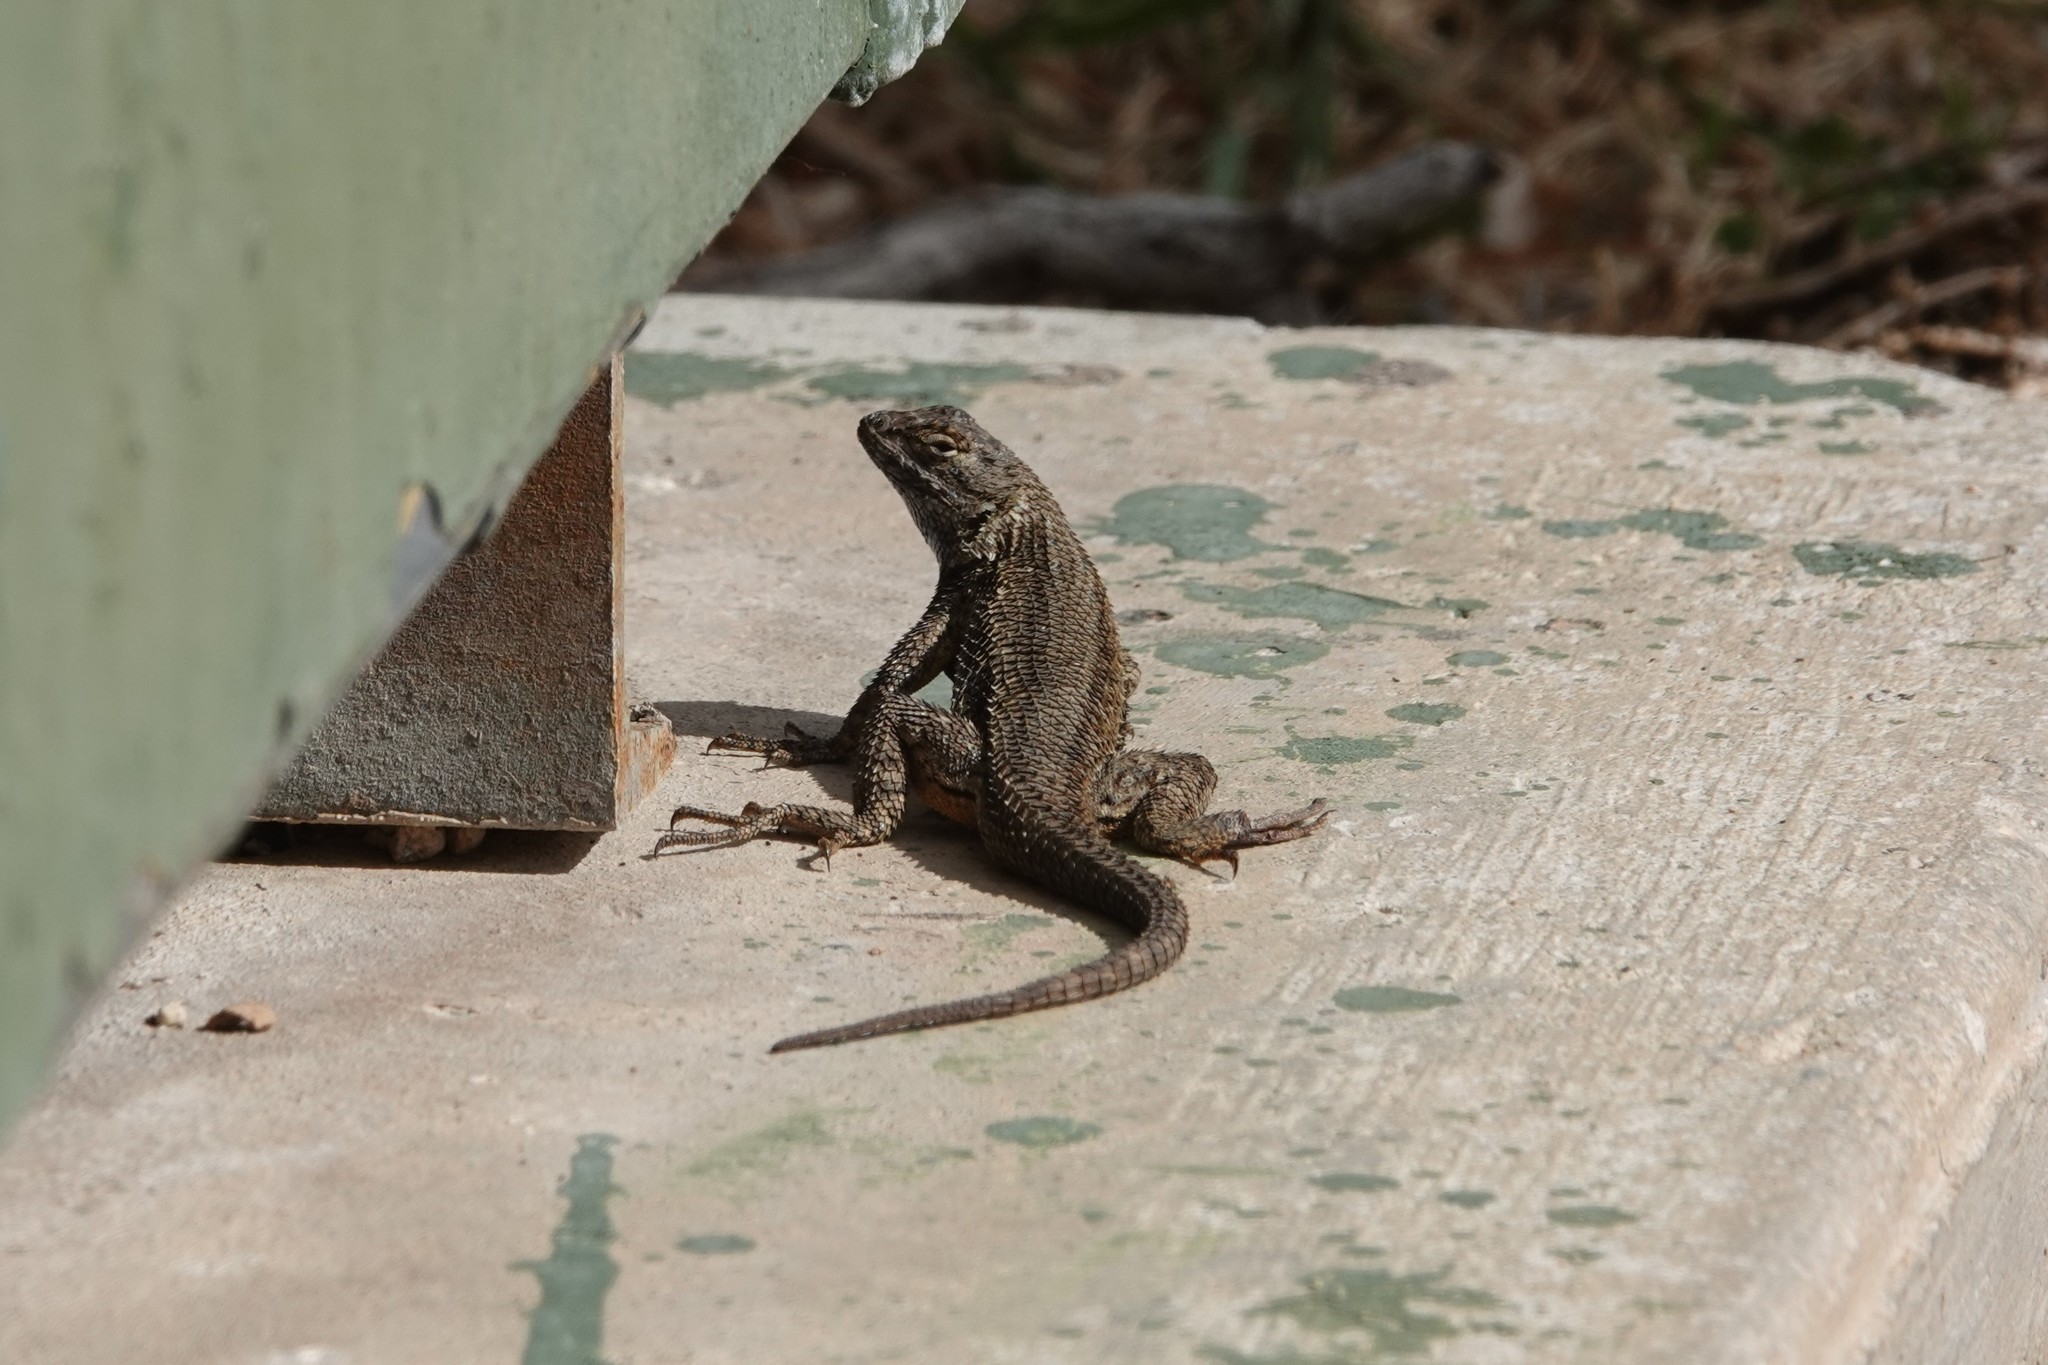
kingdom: Animalia
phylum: Chordata
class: Squamata
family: Phrynosomatidae
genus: Sceloporus
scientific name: Sceloporus occidentalis
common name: Western fence lizard
